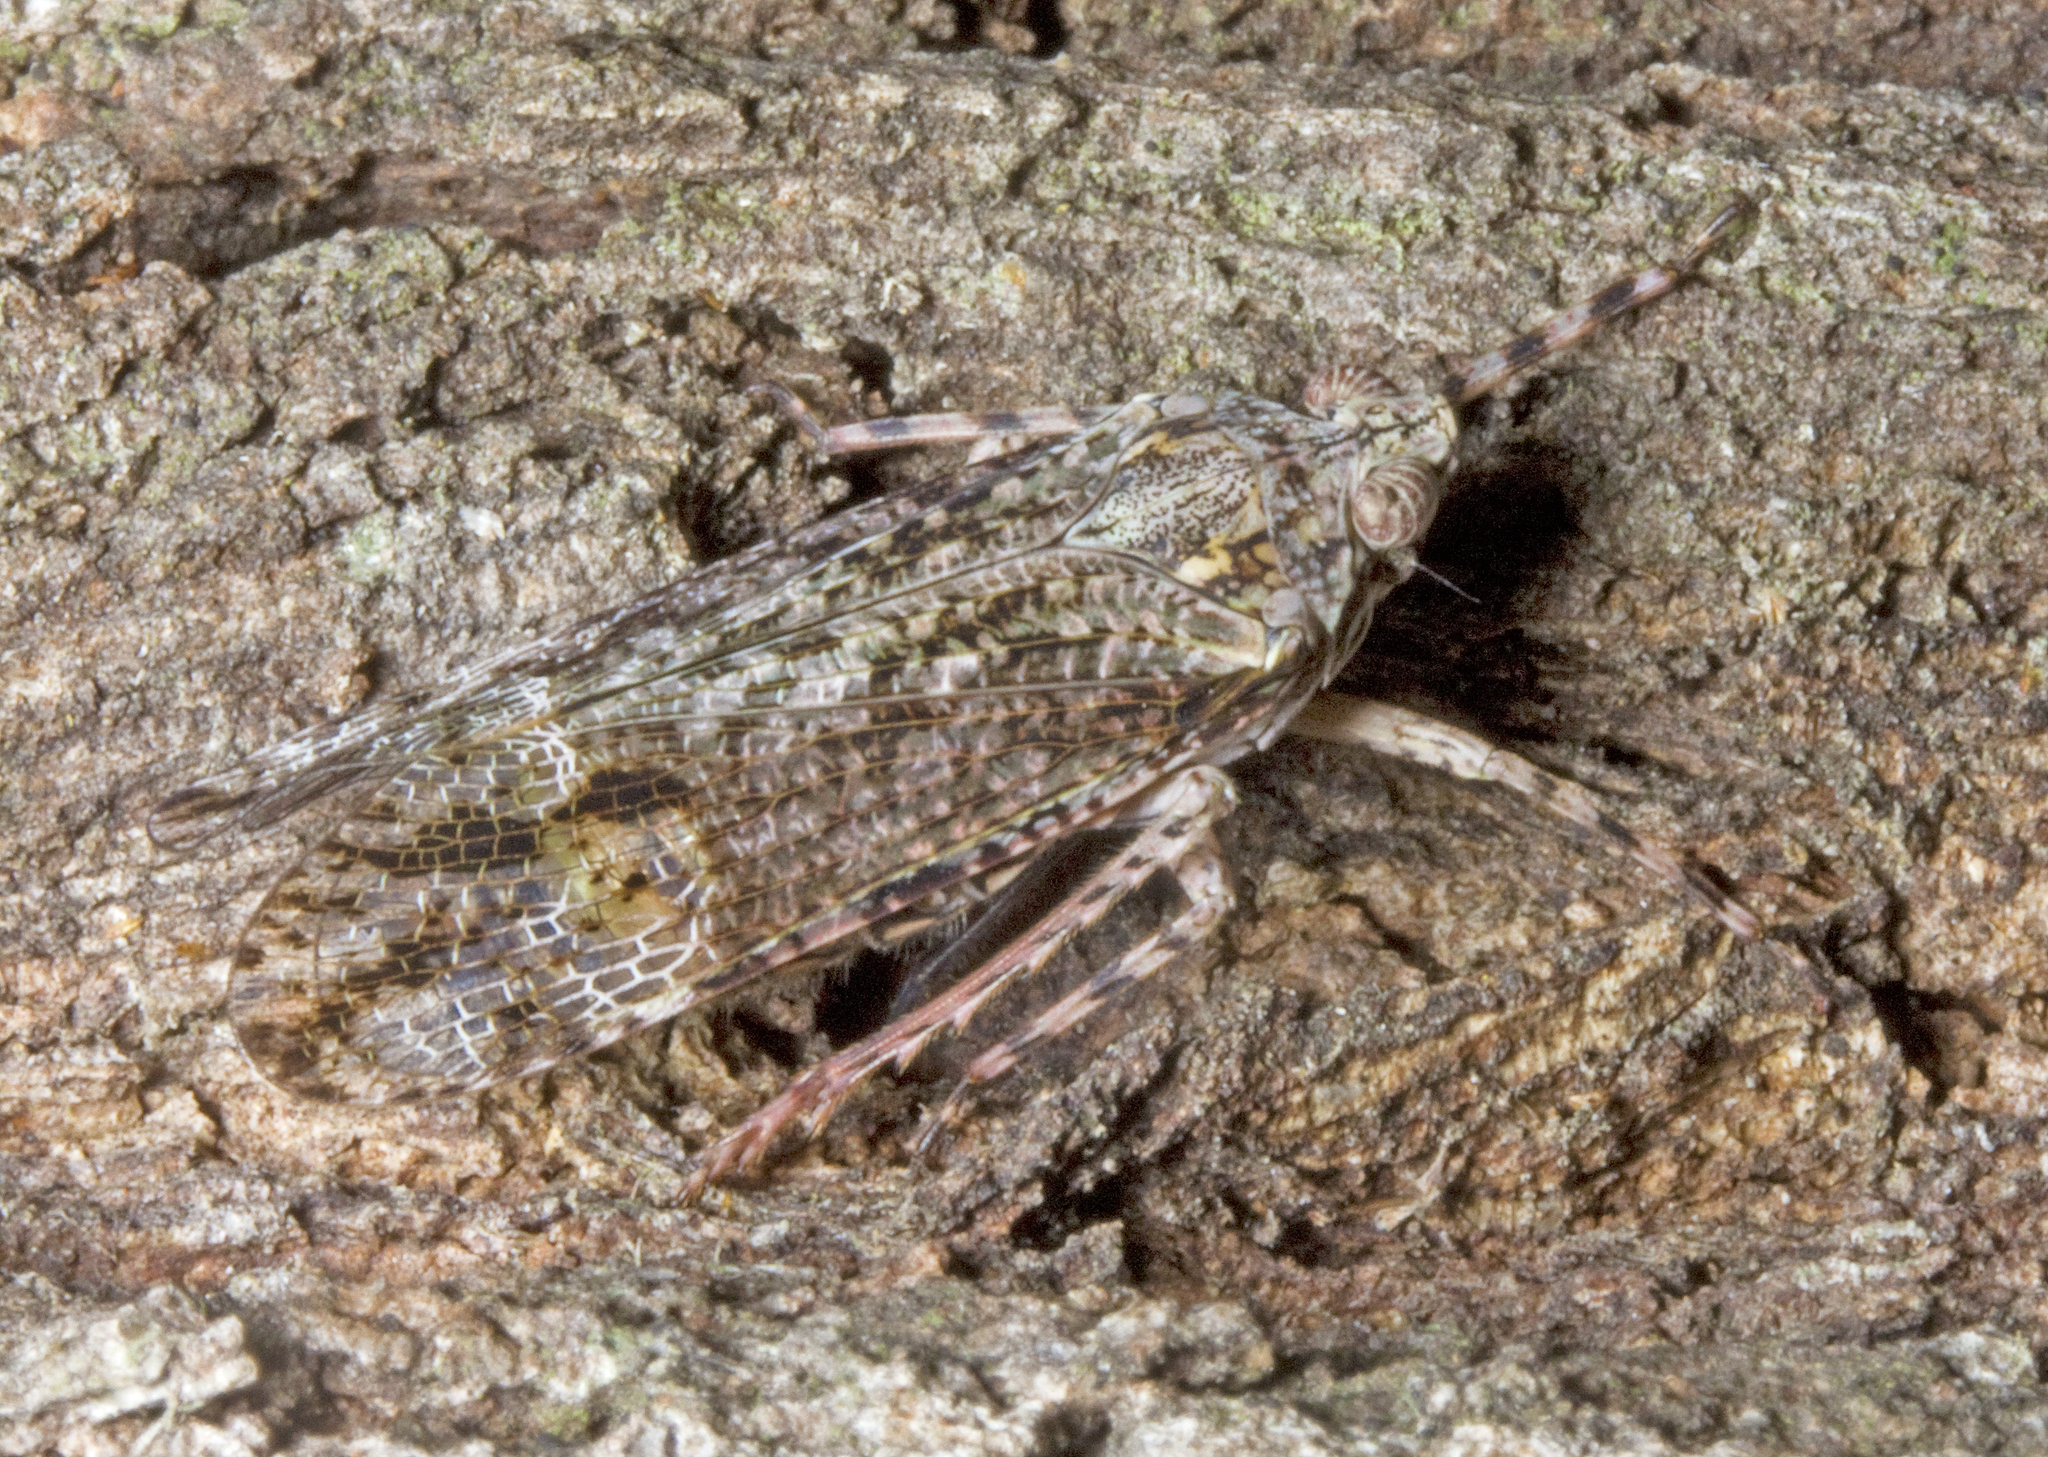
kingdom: Animalia
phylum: Arthropoda
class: Insecta
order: Hemiptera
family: Fulgoridae
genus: Erilla
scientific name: Erilla turneri
